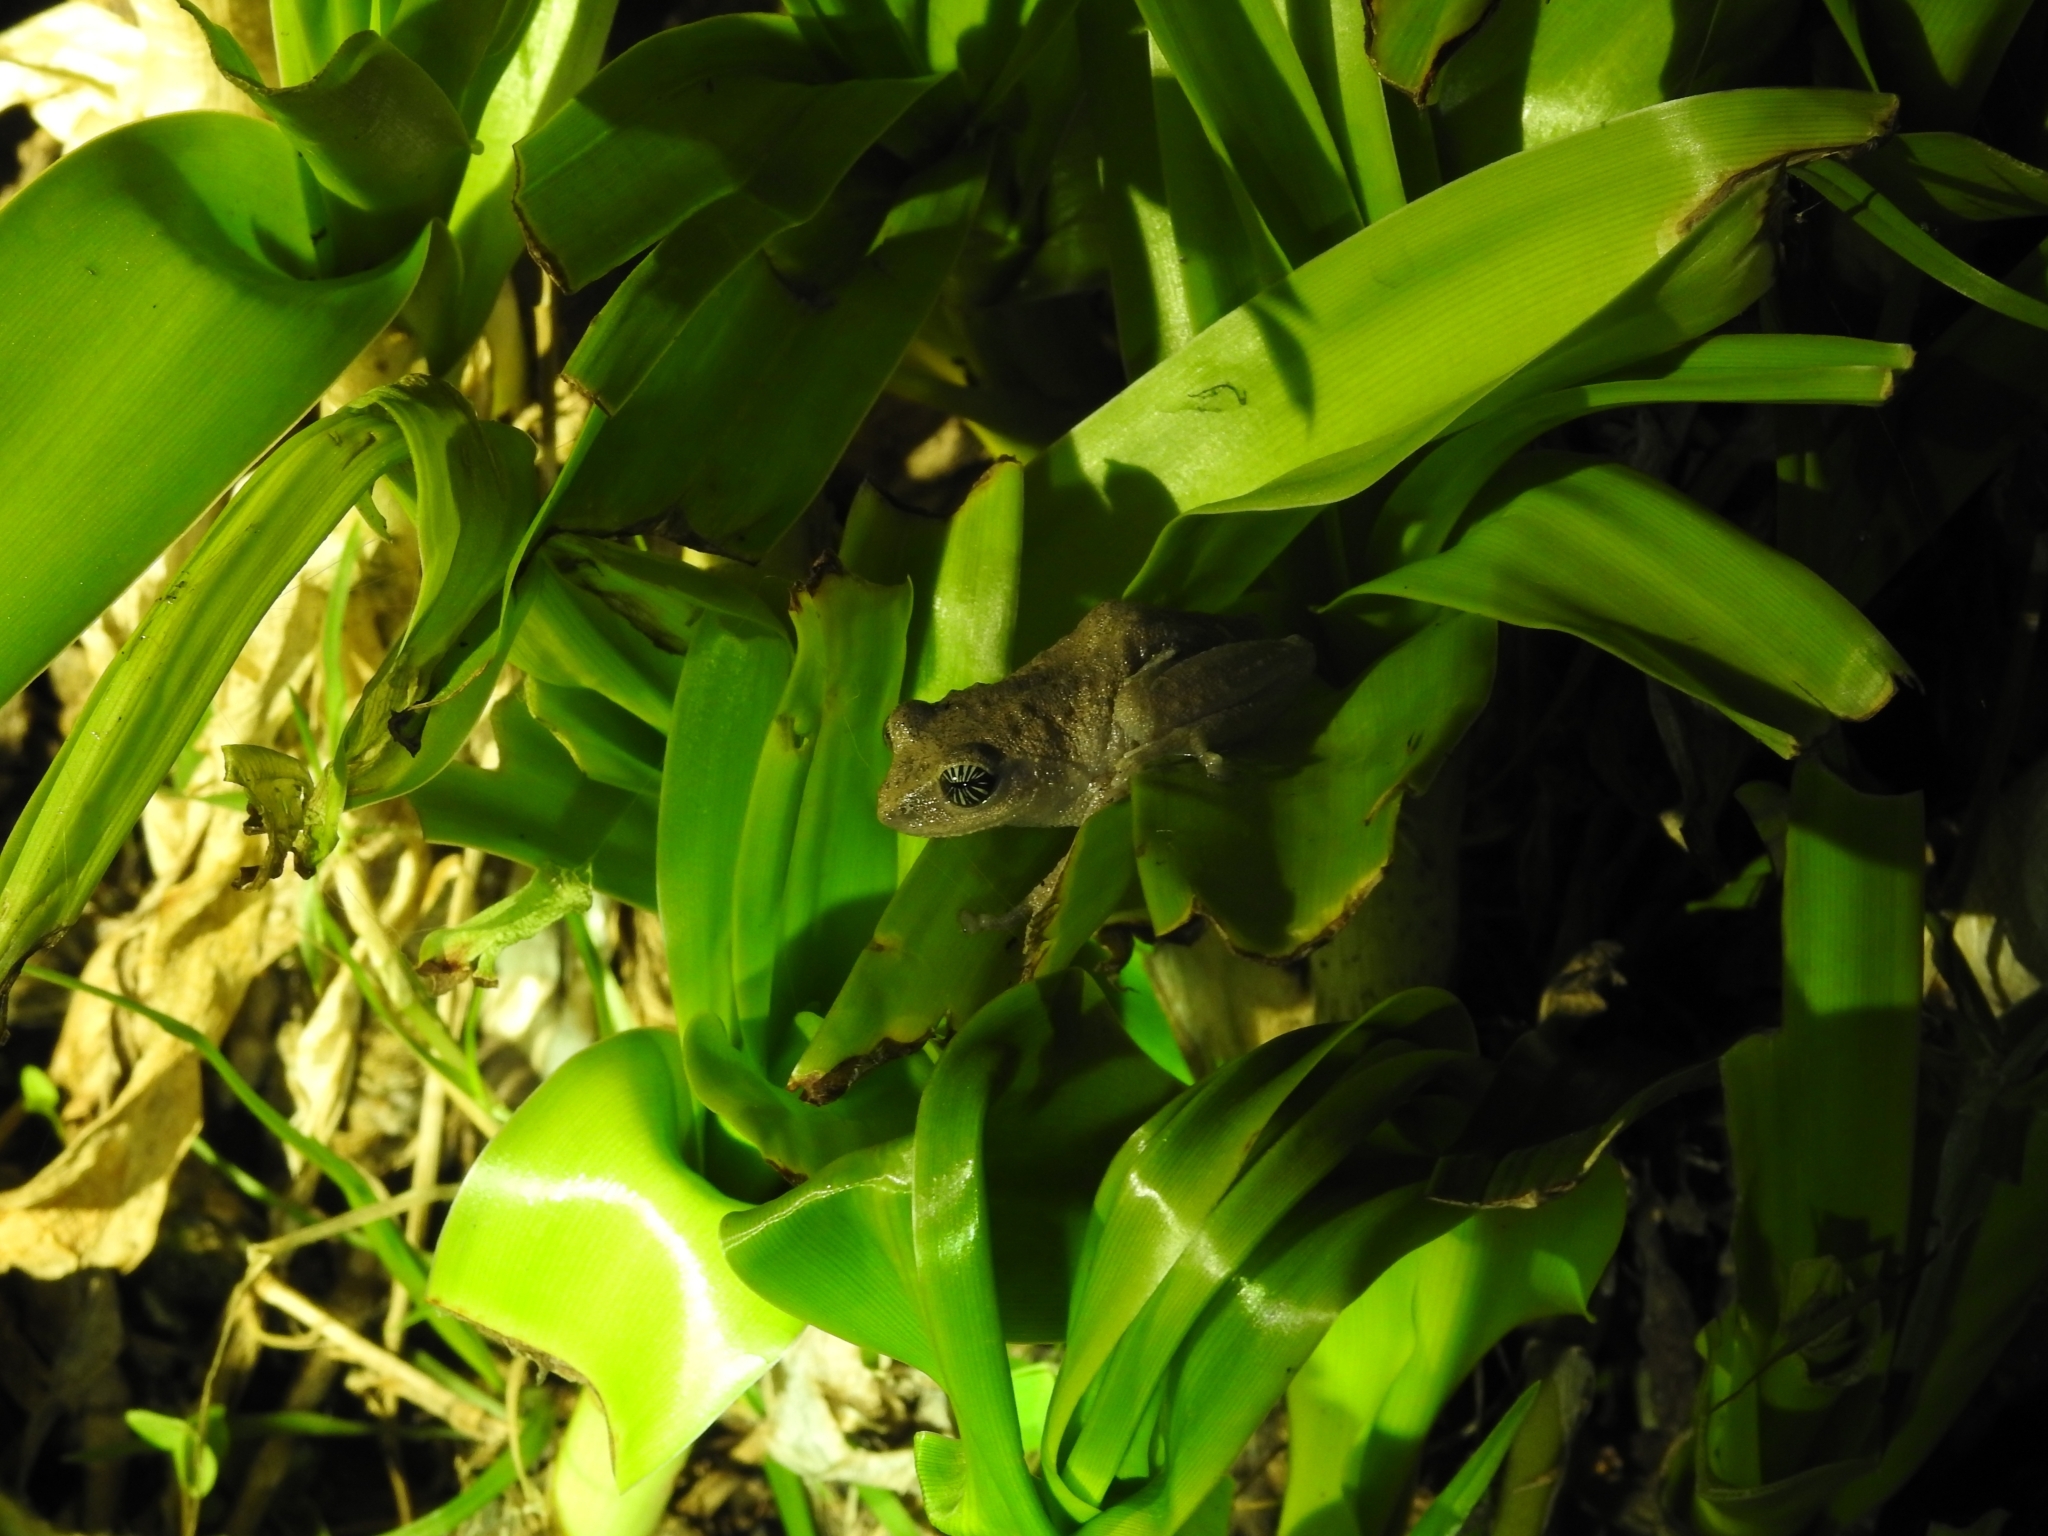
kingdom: Animalia
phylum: Chordata
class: Amphibia
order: Anura
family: Rhacophoridae
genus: Raorchestes
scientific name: Raorchestes signatus
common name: Cross-backed bush frog
